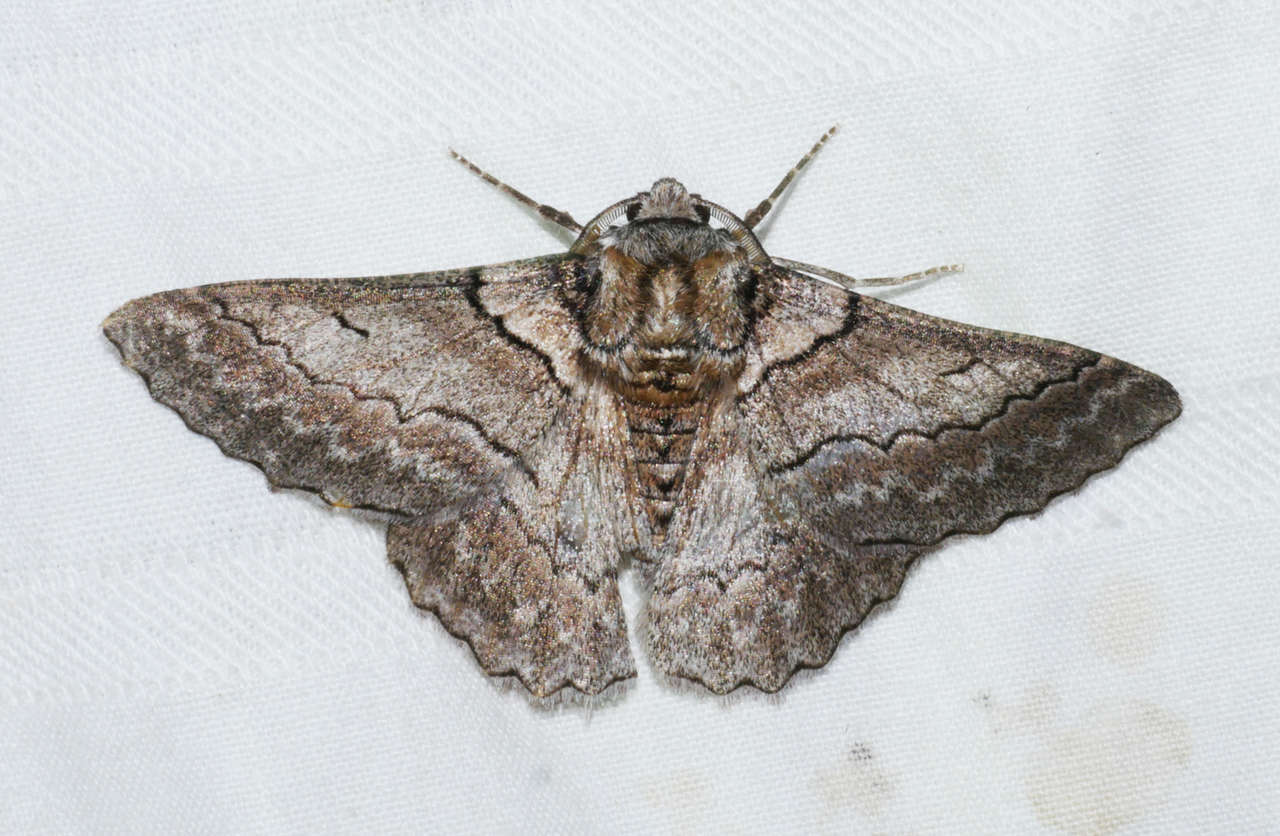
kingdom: Animalia
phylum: Arthropoda
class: Insecta
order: Lepidoptera
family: Geometridae
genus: Hypobapta
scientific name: Hypobapta tachyhalotaria
